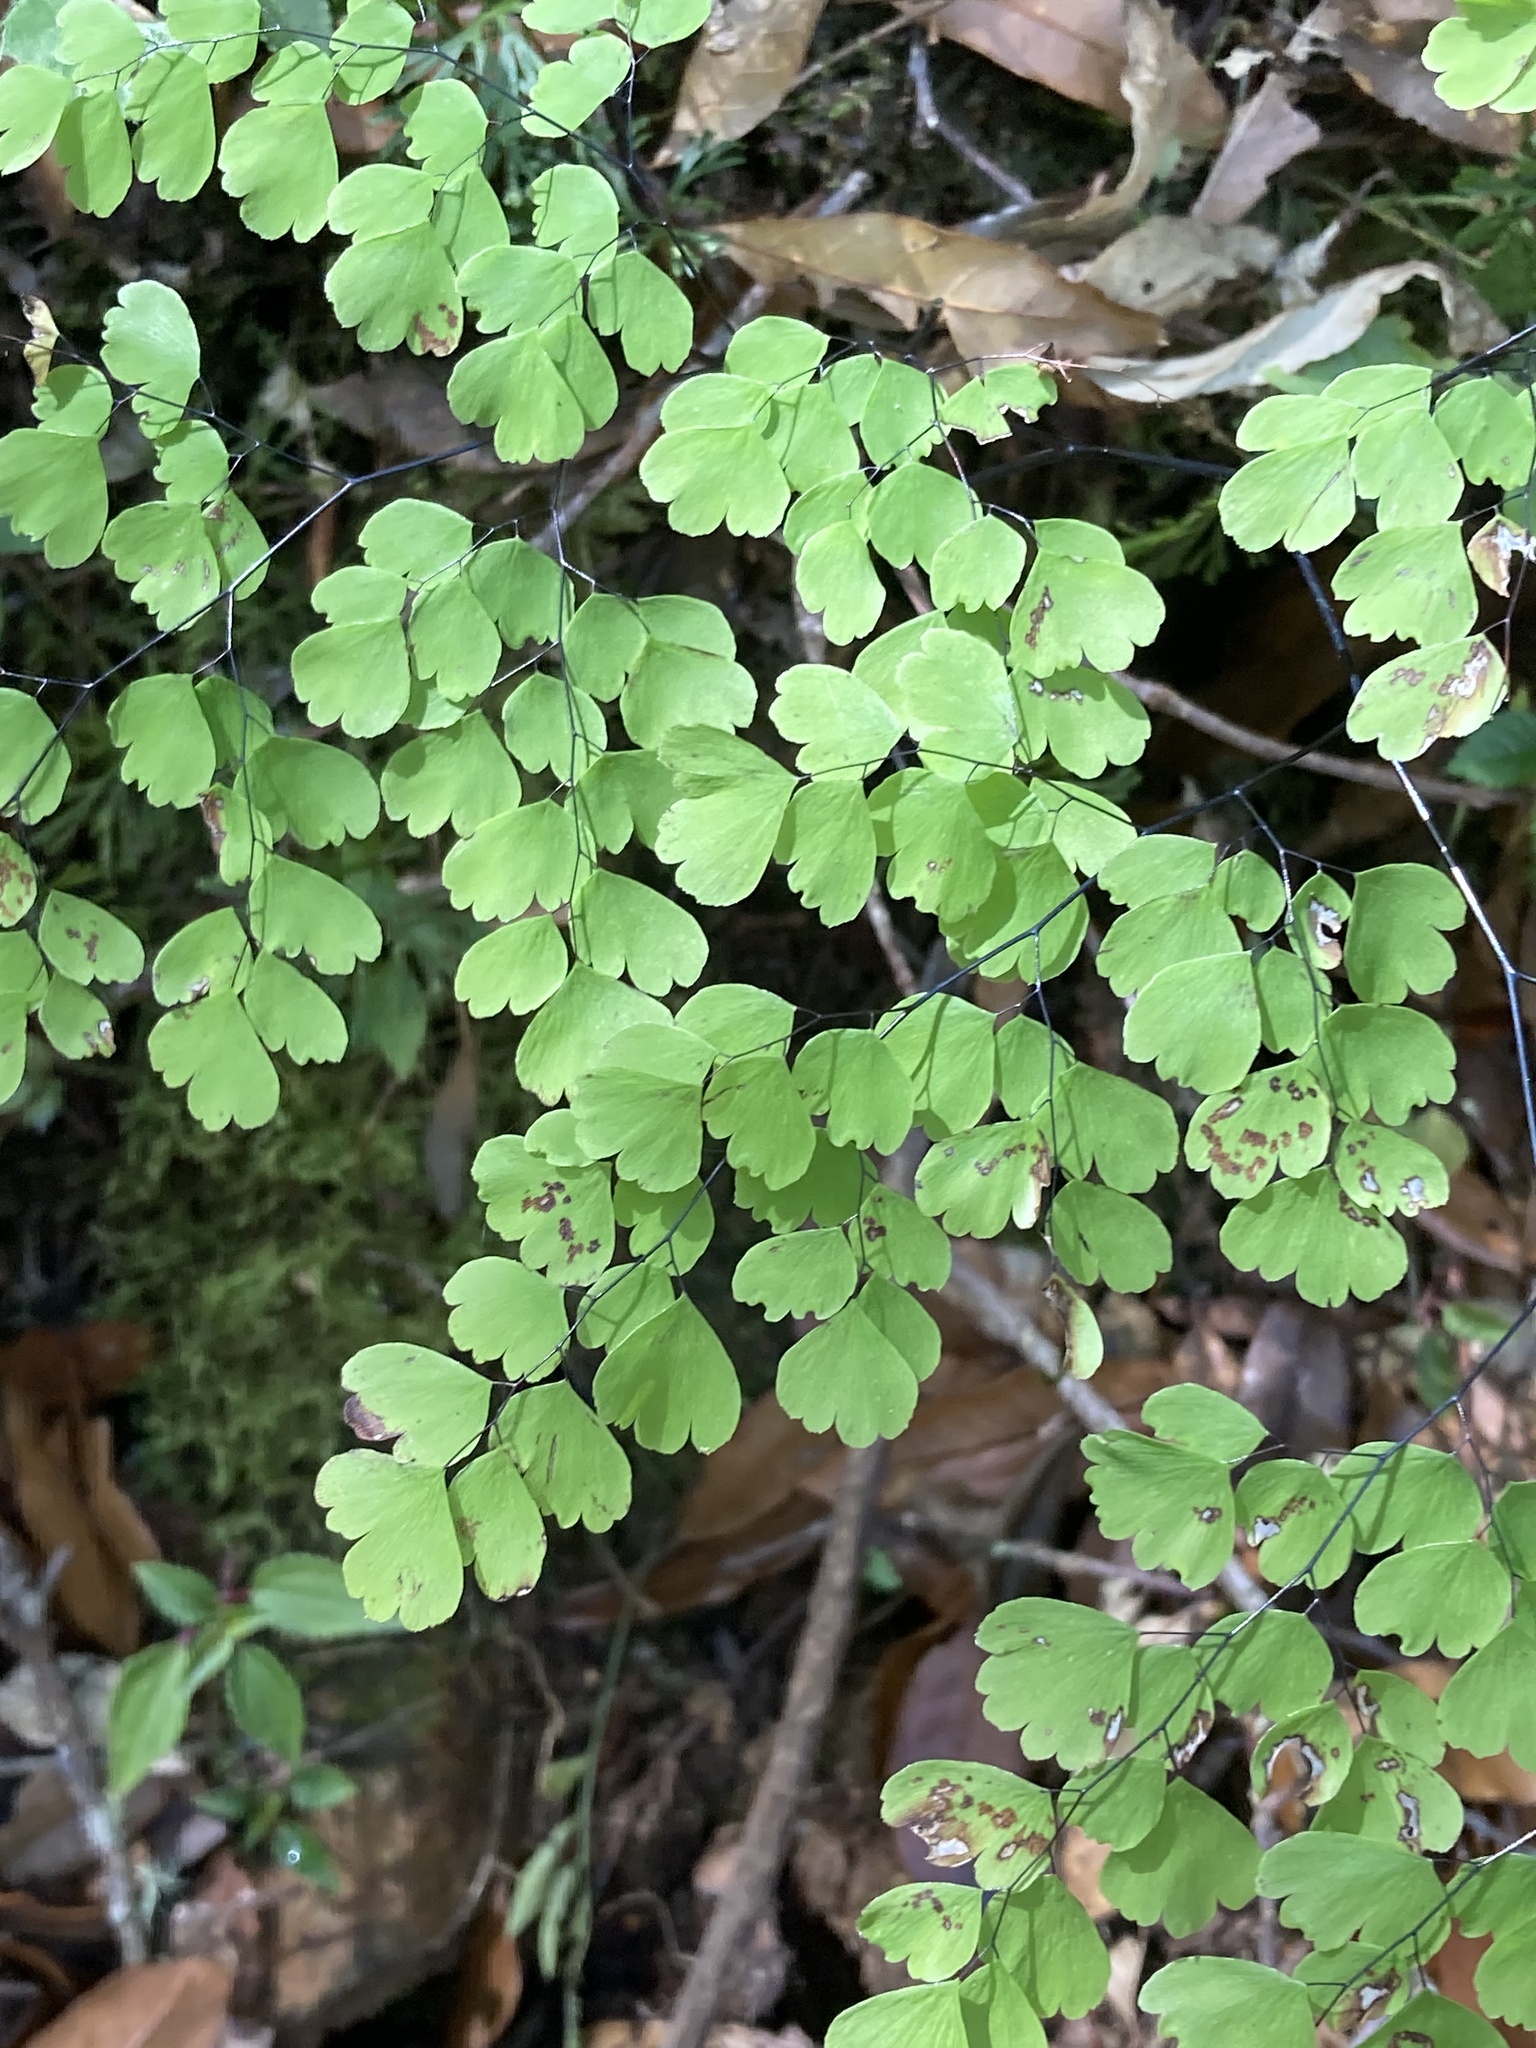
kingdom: Plantae
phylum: Tracheophyta
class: Polypodiopsida
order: Polypodiales
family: Pteridaceae
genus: Adiantum
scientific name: Adiantum andicola
